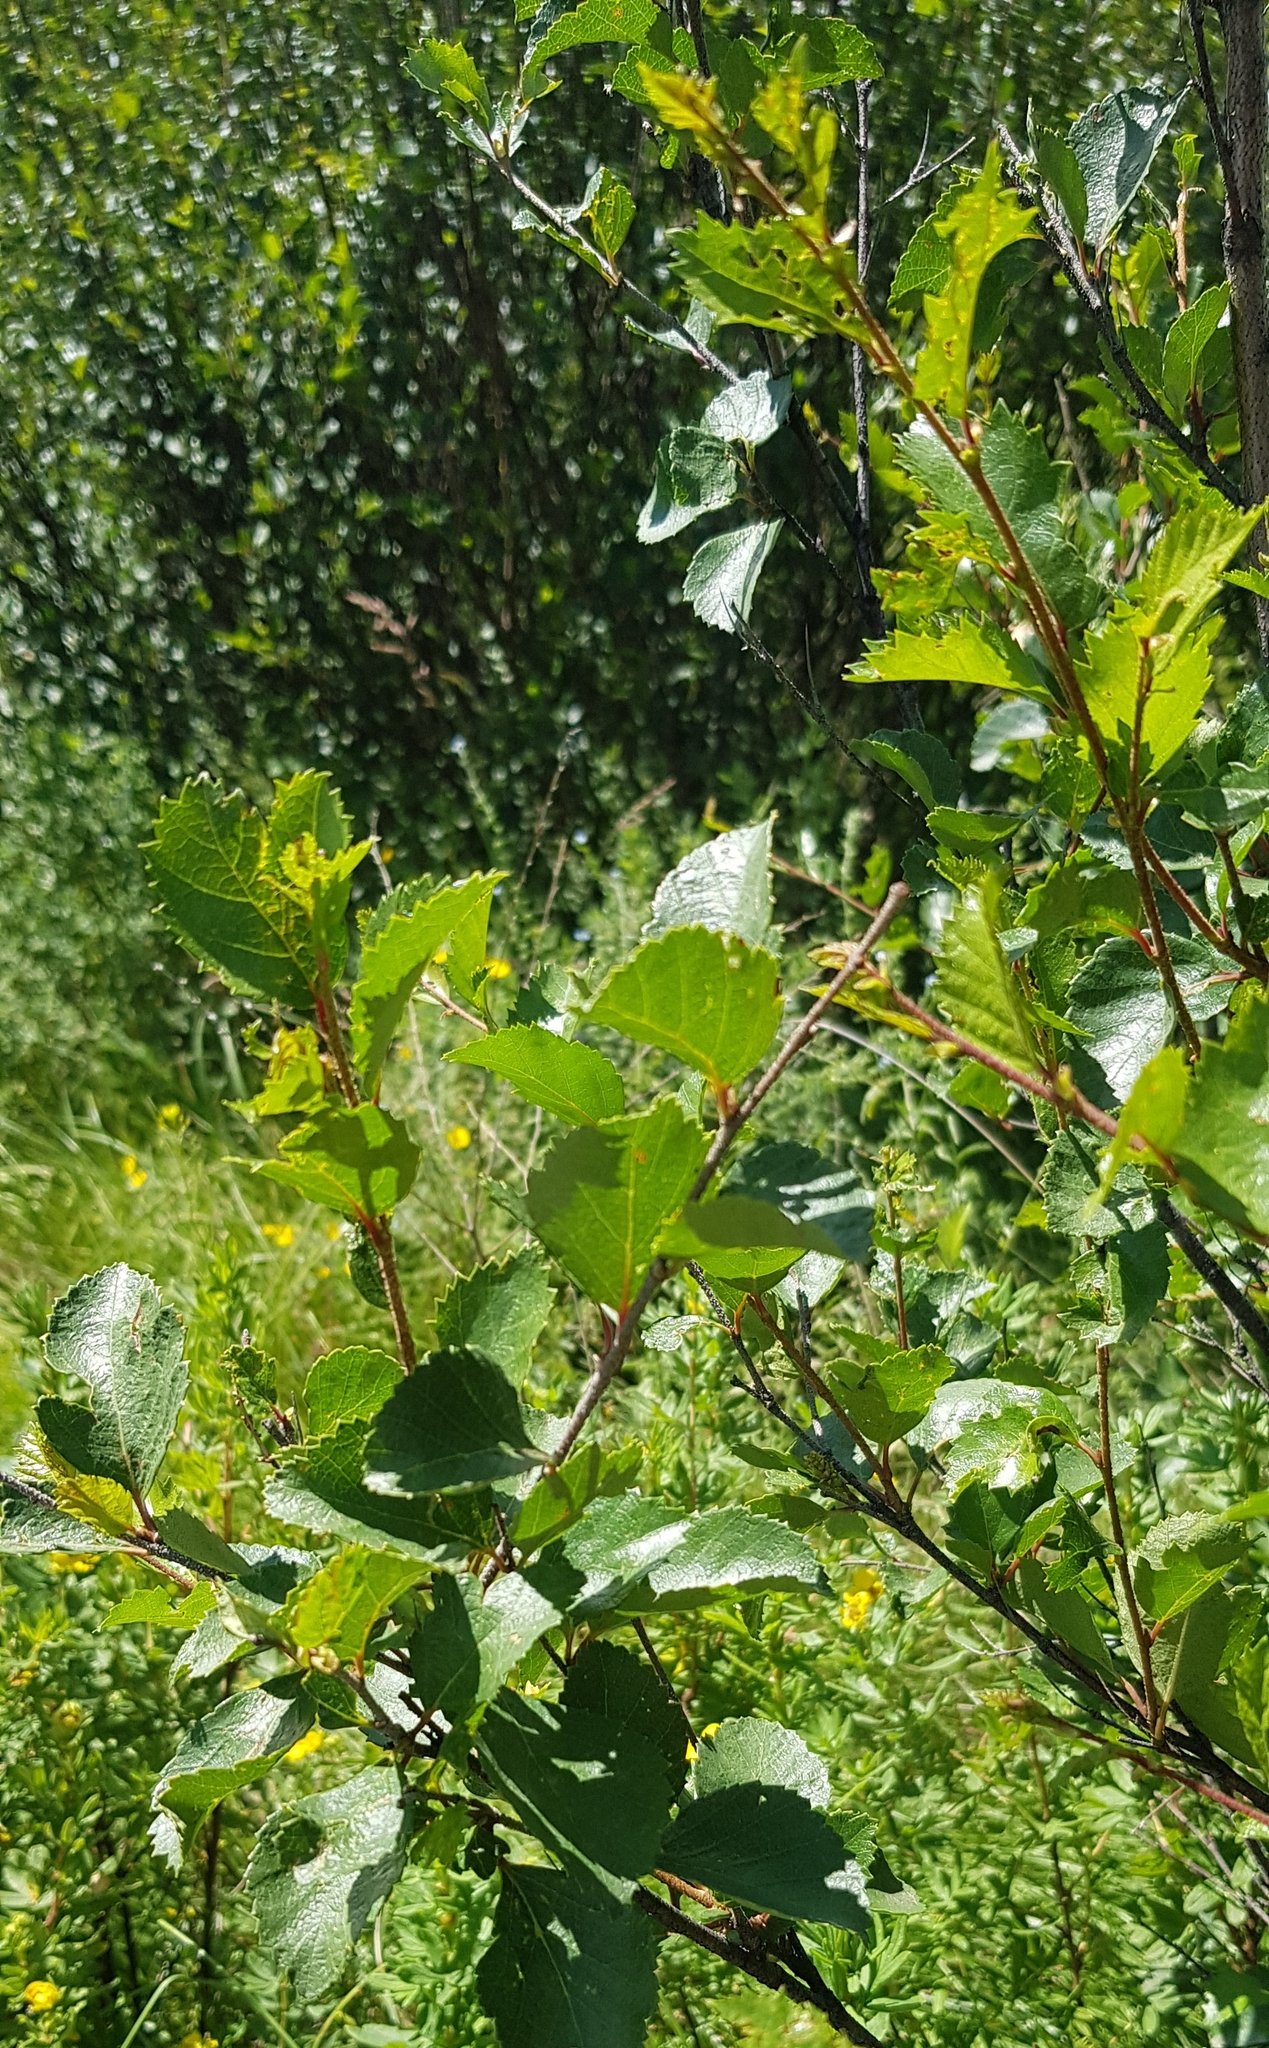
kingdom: Plantae
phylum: Tracheophyta
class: Magnoliopsida
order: Fagales
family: Betulaceae
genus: Betula
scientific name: Betula humilis
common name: Shrubby birch
